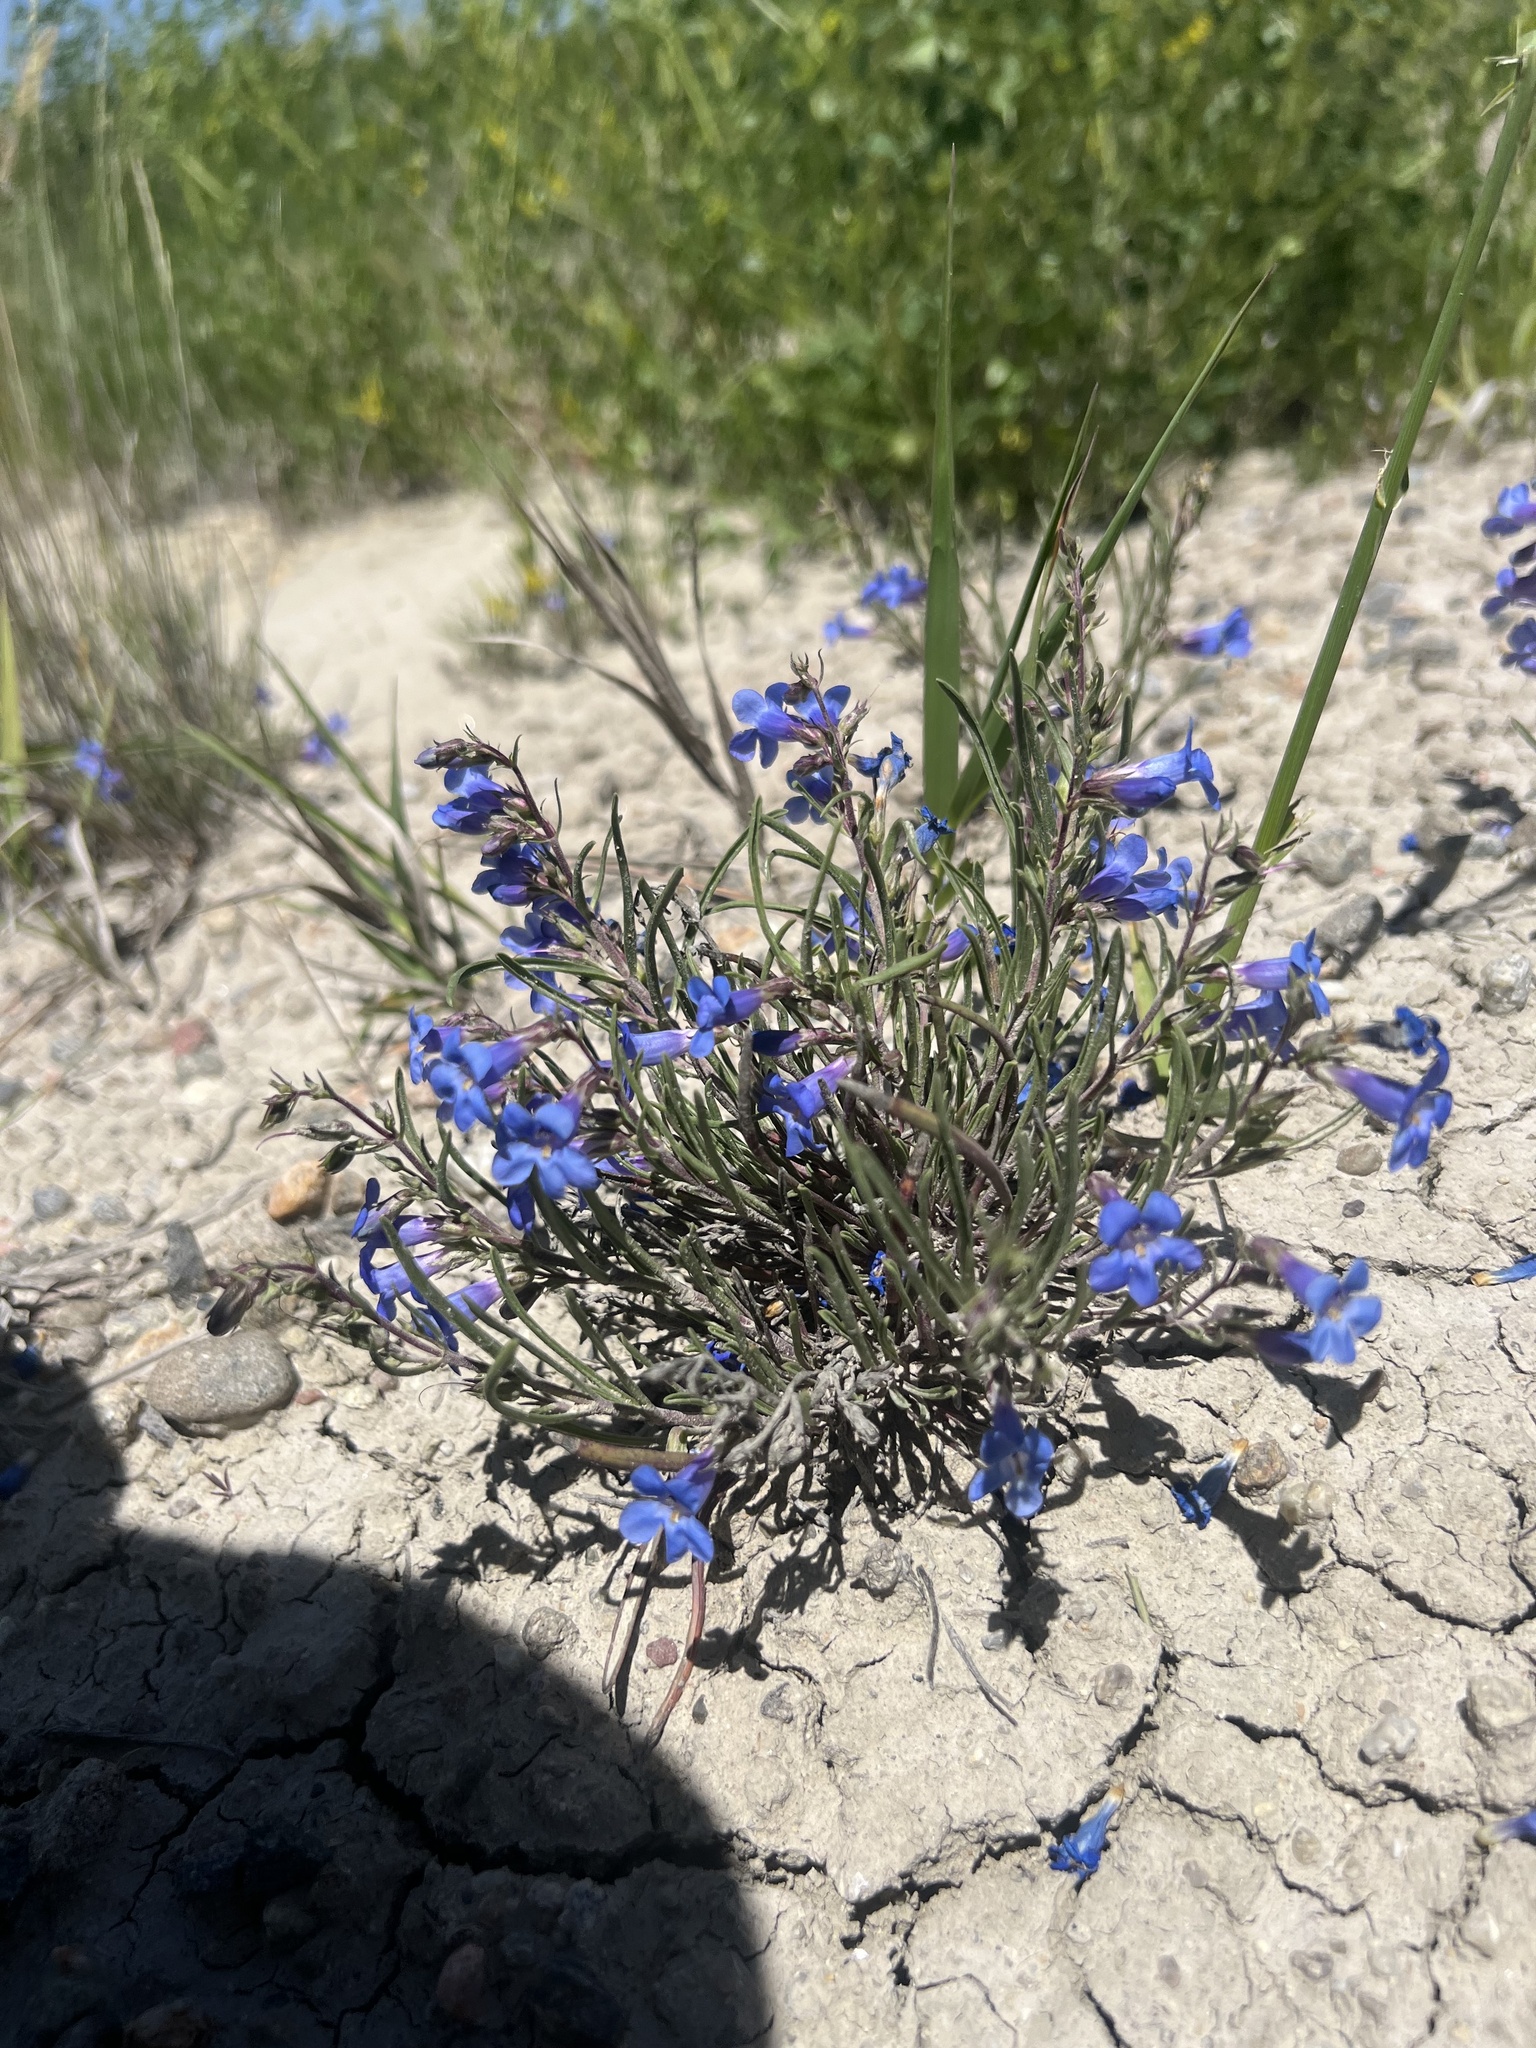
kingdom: Plantae
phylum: Tracheophyta
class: Magnoliopsida
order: Lamiales
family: Plantaginaceae
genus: Penstemon
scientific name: Penstemon penlandii
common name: Penland's beardtongue
